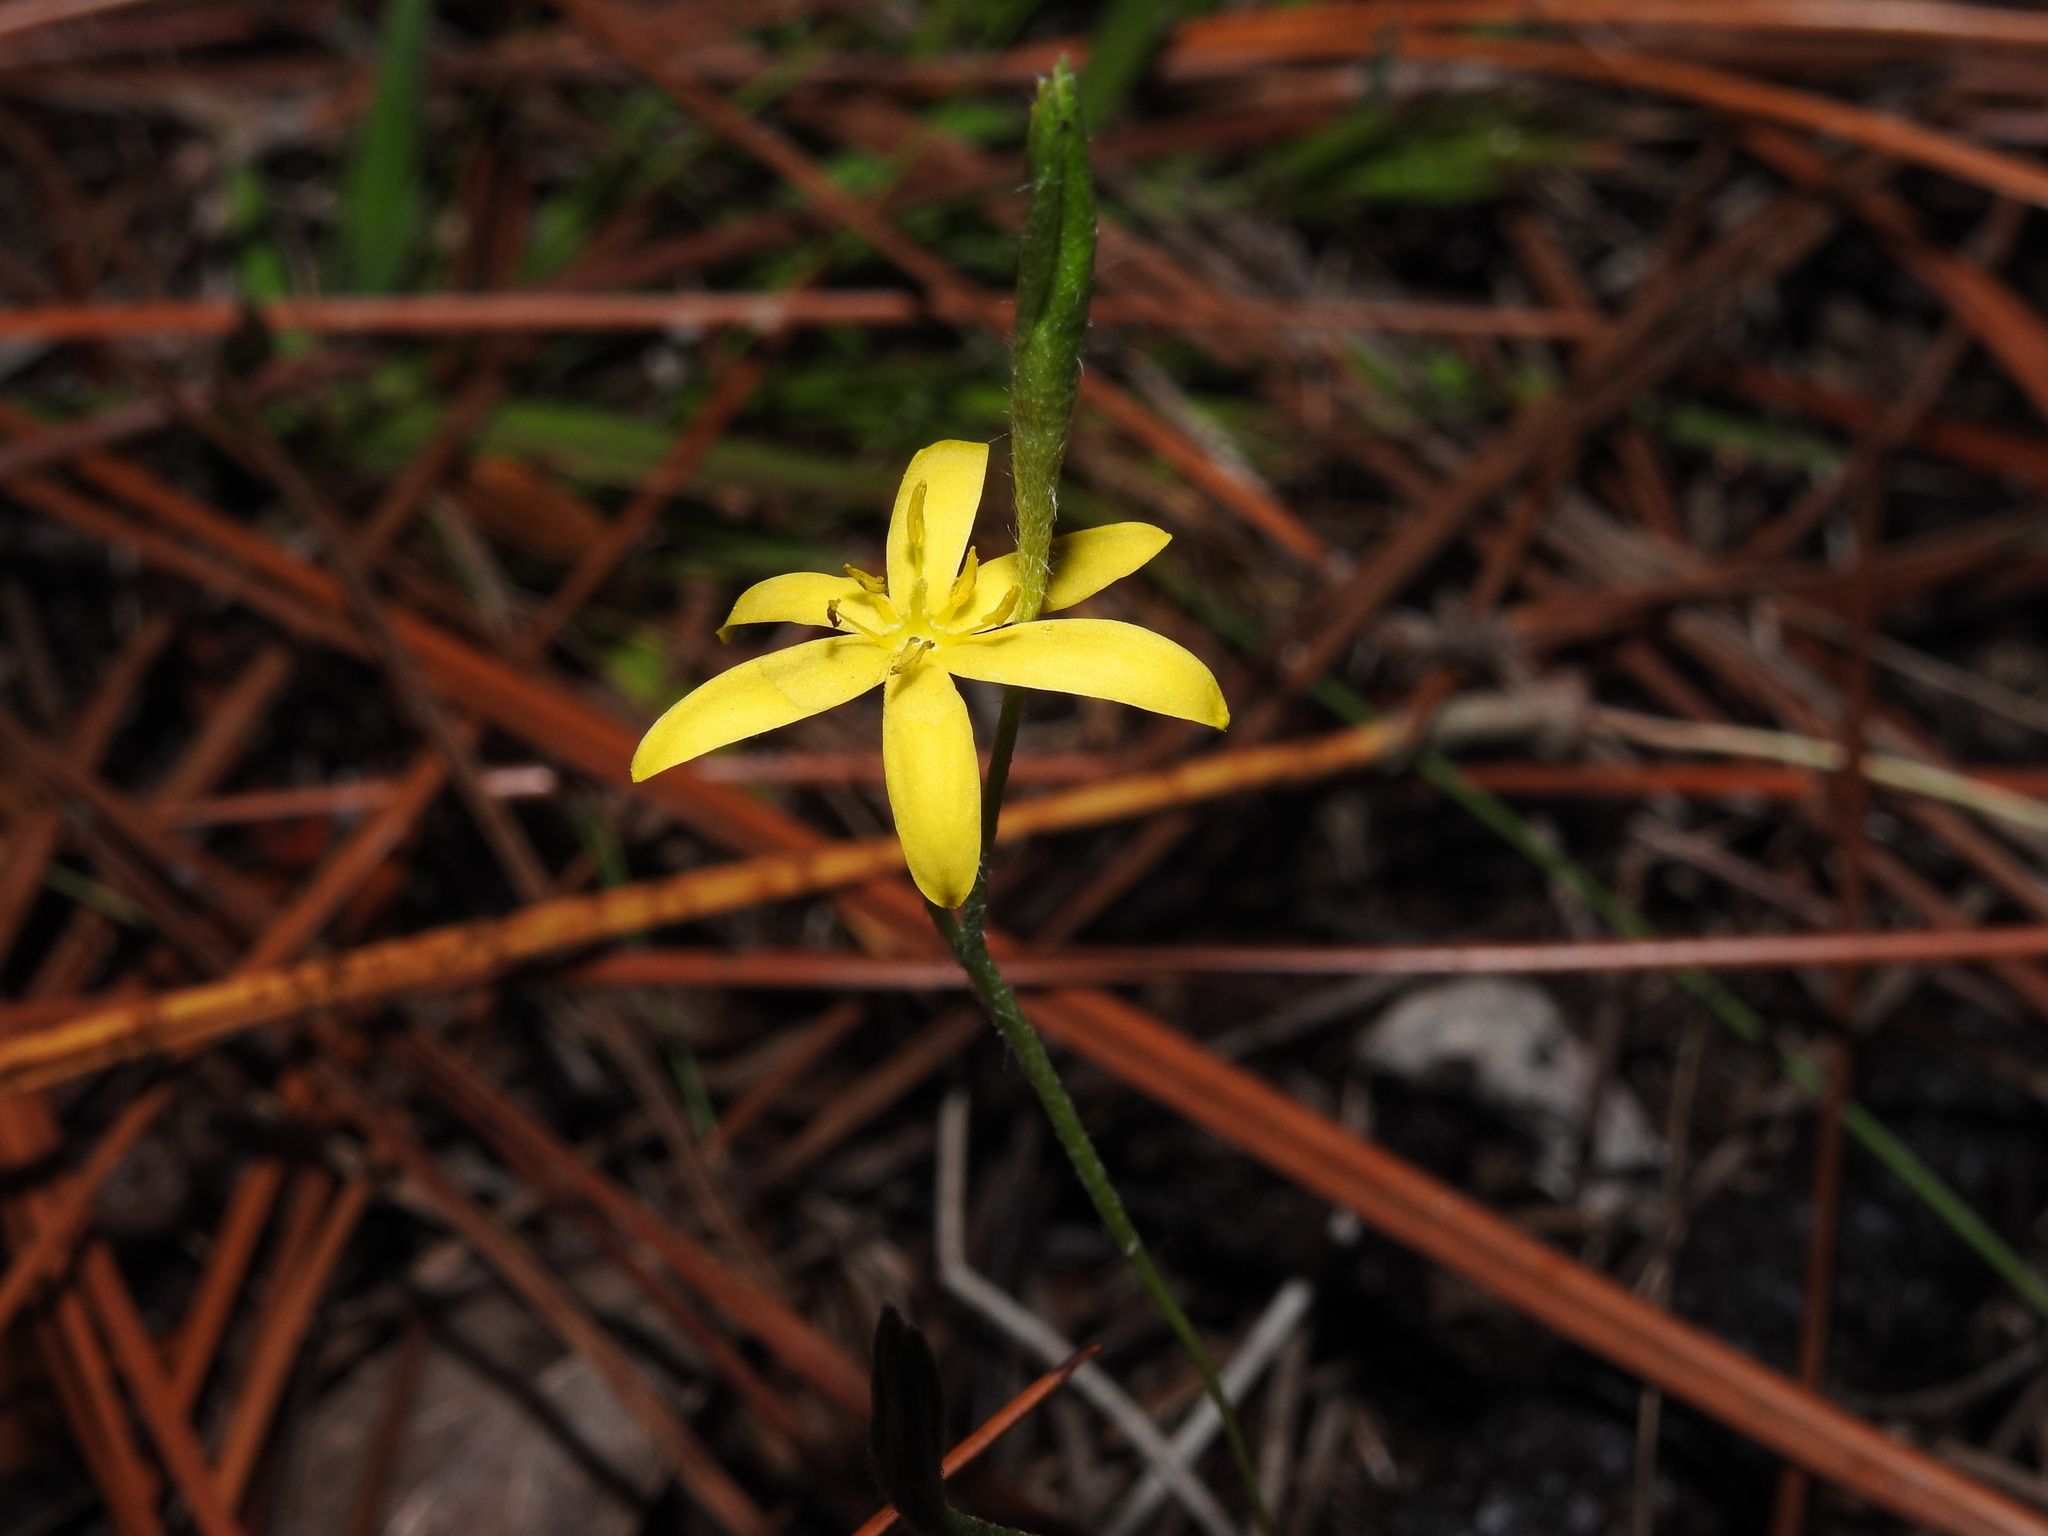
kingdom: Plantae
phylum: Tracheophyta
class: Liliopsida
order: Asparagales
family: Hypoxidaceae
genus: Hypoxis
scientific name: Hypoxis juncea
